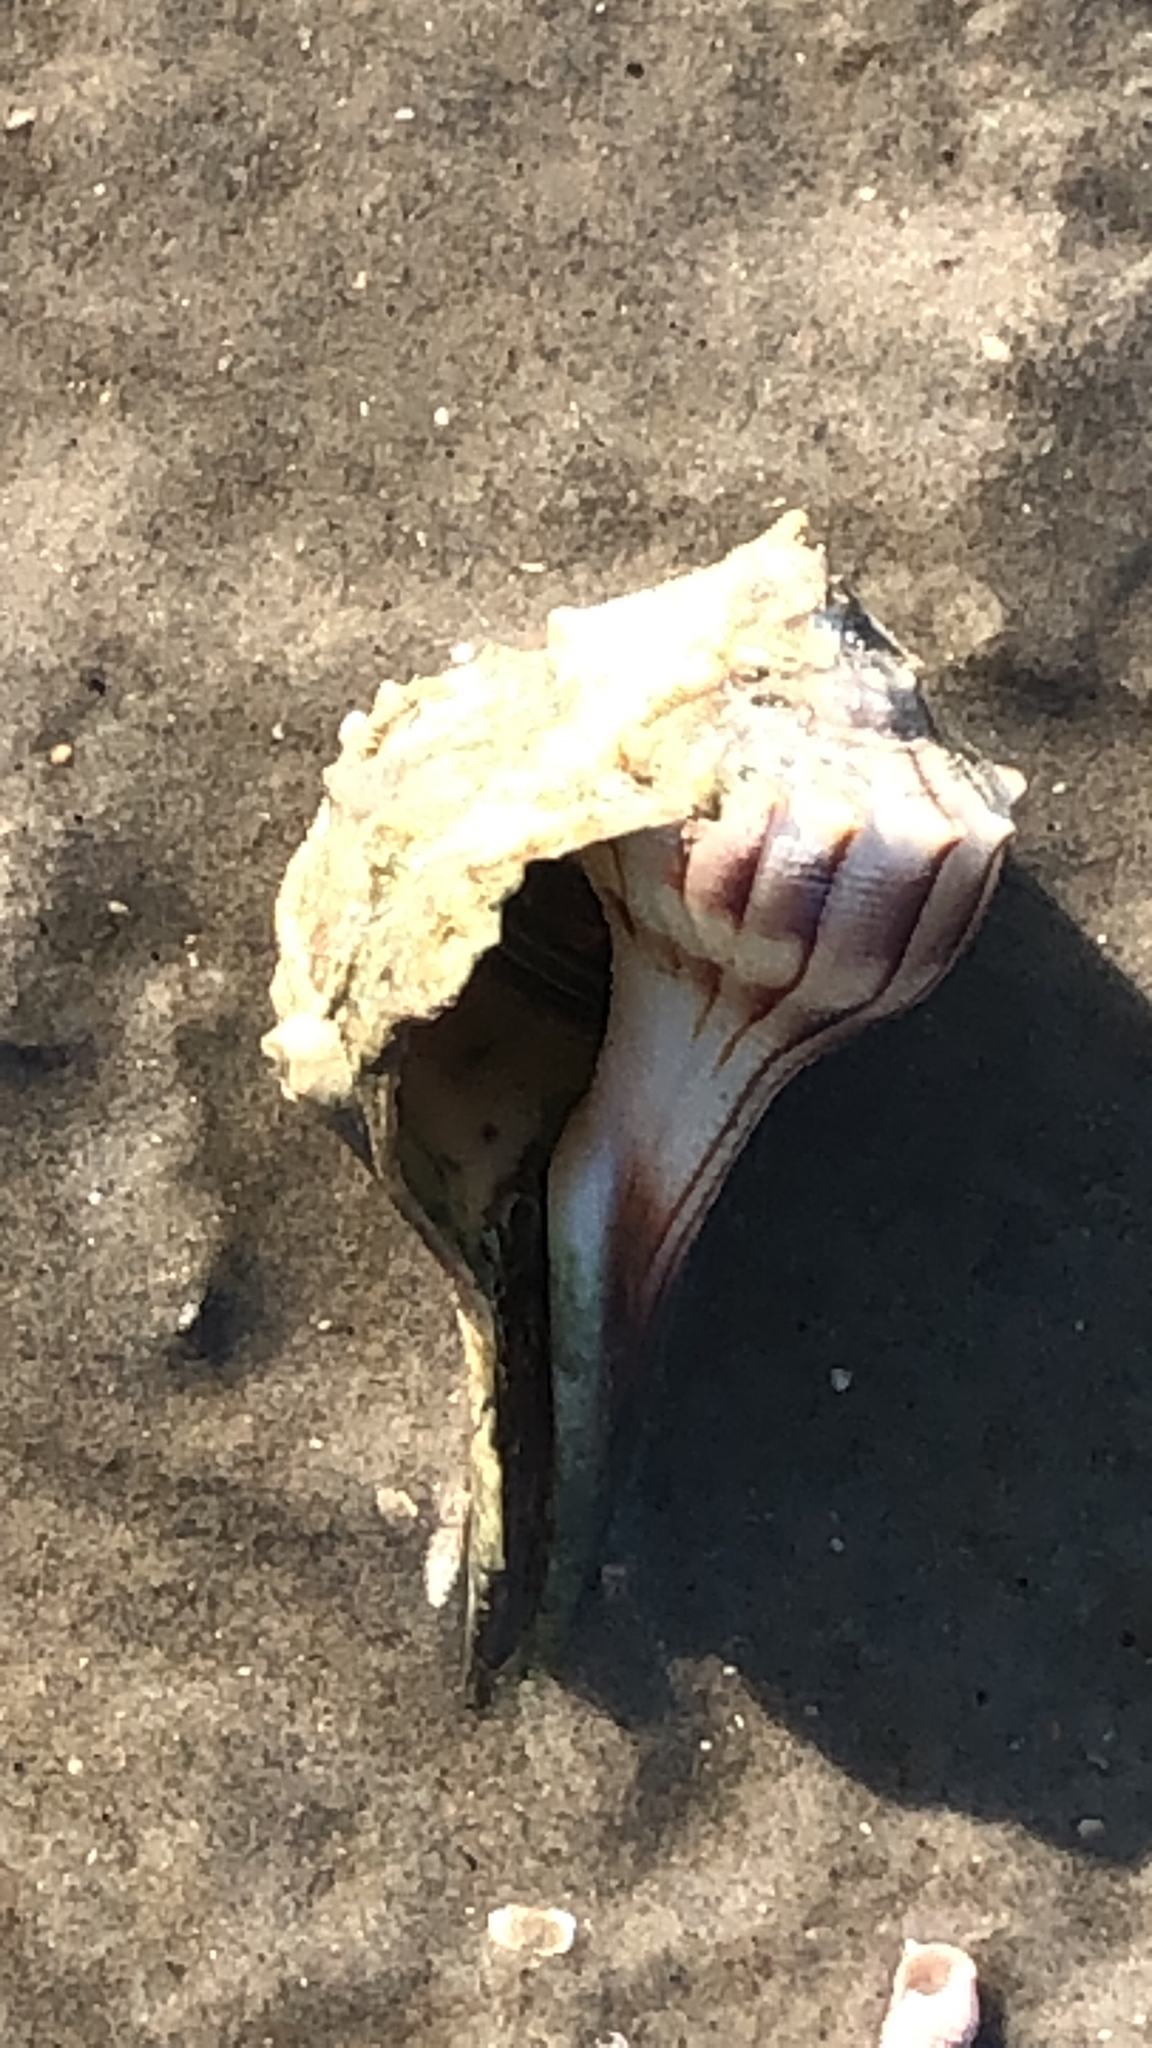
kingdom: Animalia
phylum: Mollusca
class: Gastropoda
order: Neogastropoda
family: Busyconidae
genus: Sinistrofulgur
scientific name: Sinistrofulgur pulleyi
